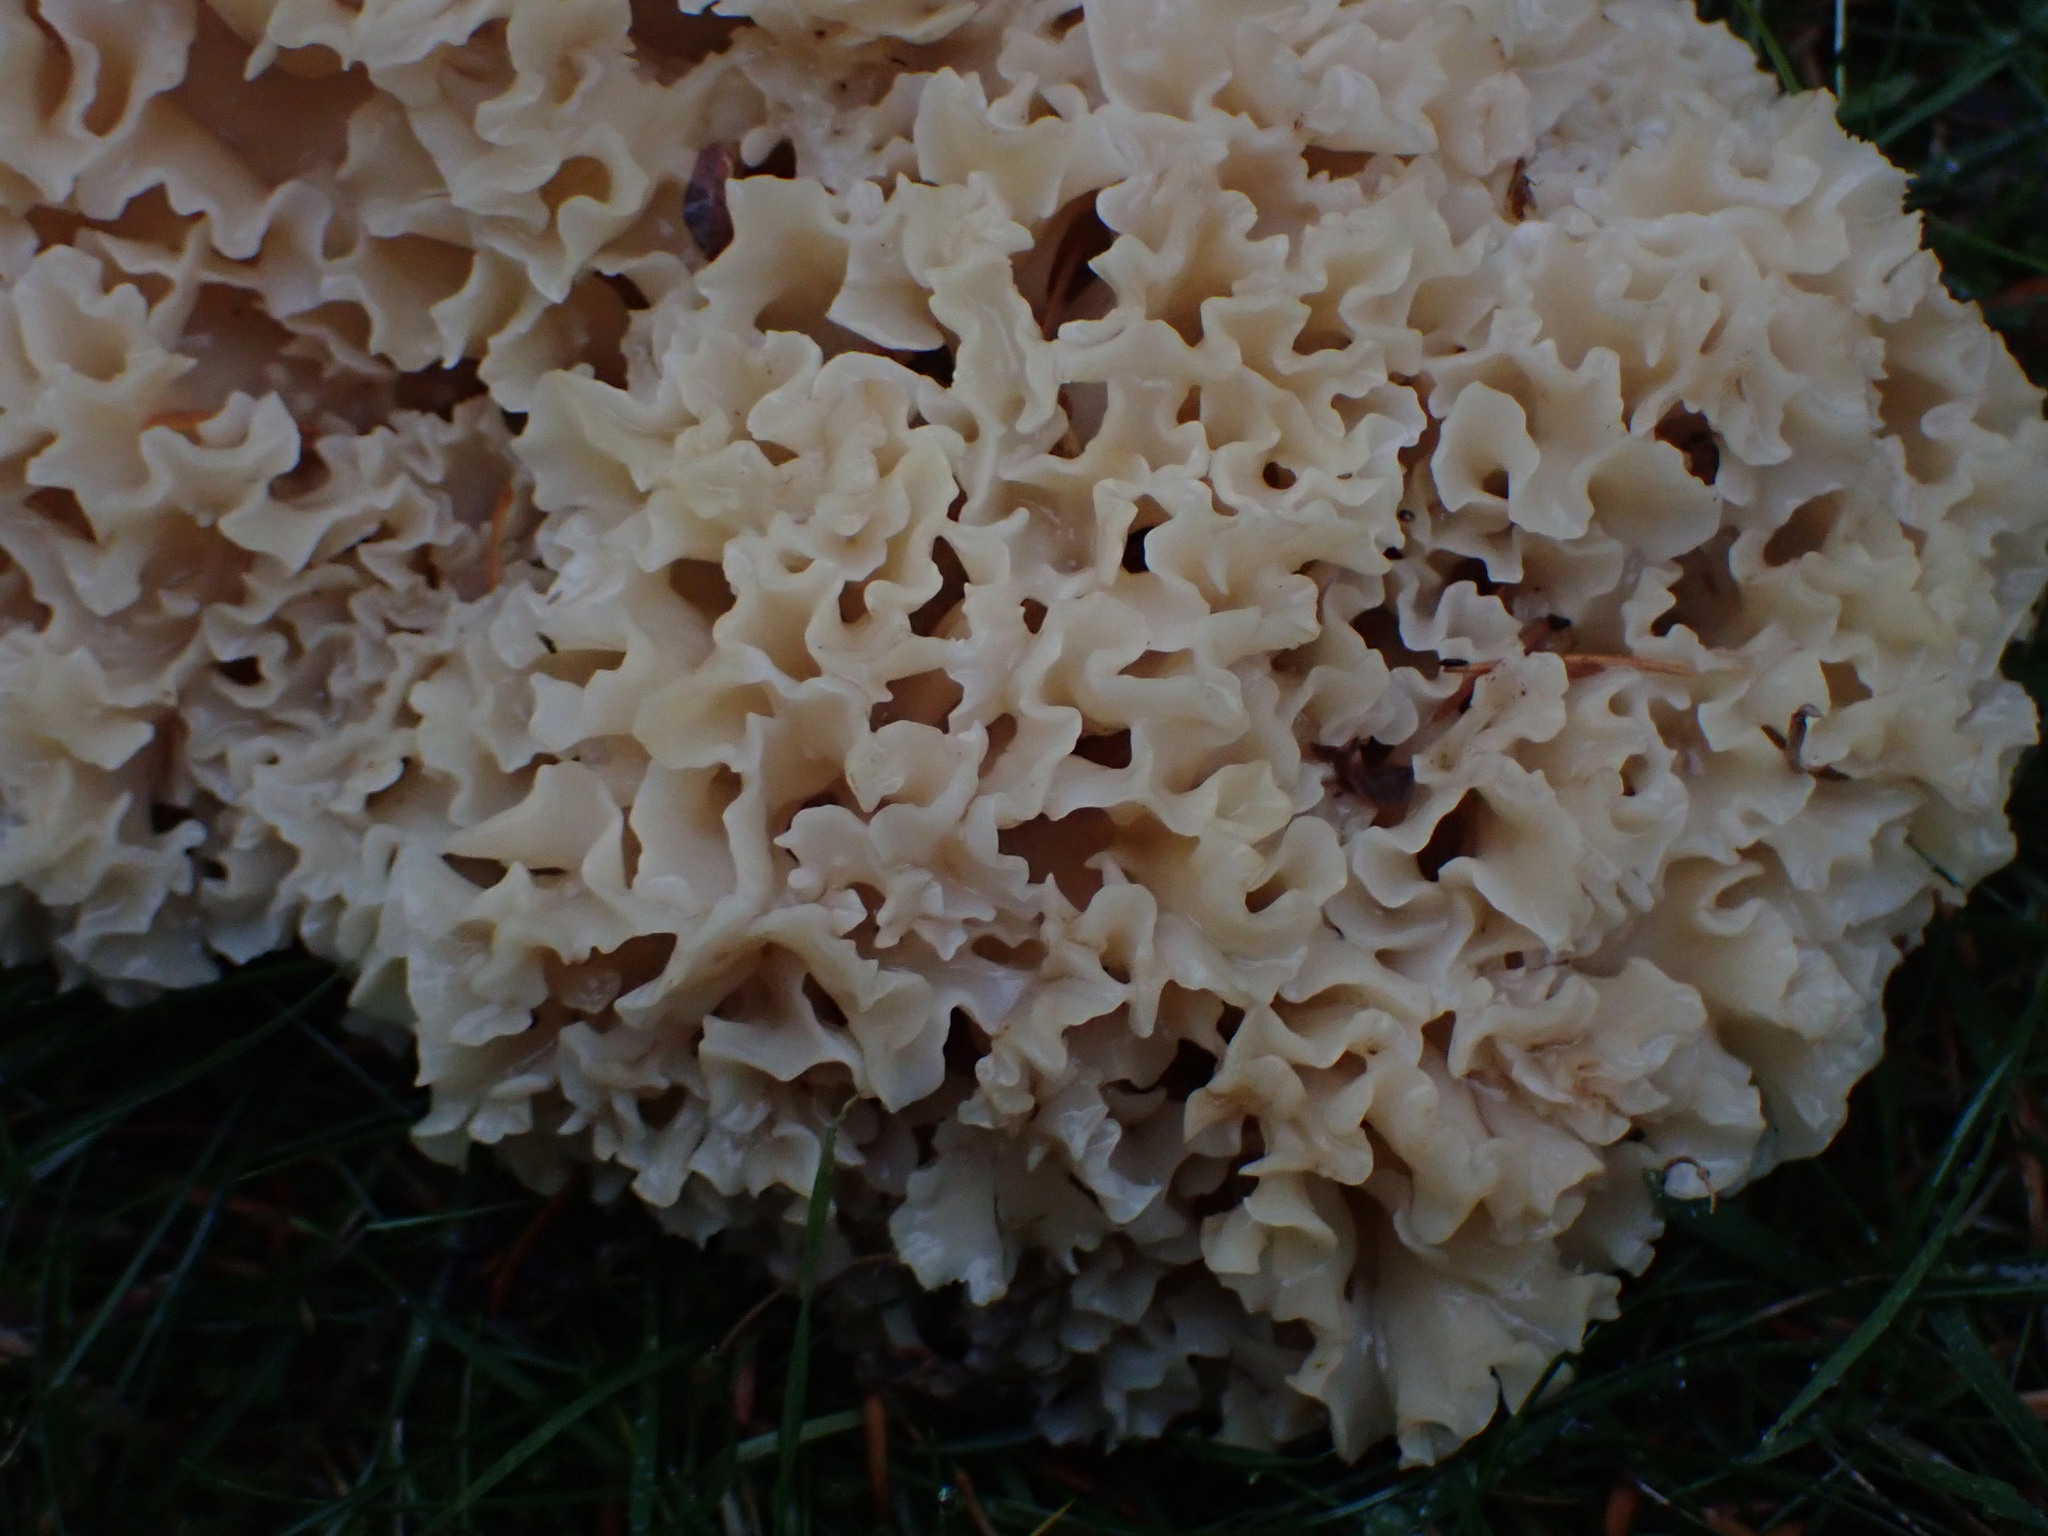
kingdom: Fungi
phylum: Basidiomycota
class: Agaricomycetes
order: Polyporales
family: Sparassidaceae
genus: Sparassis
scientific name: Sparassis radicata
